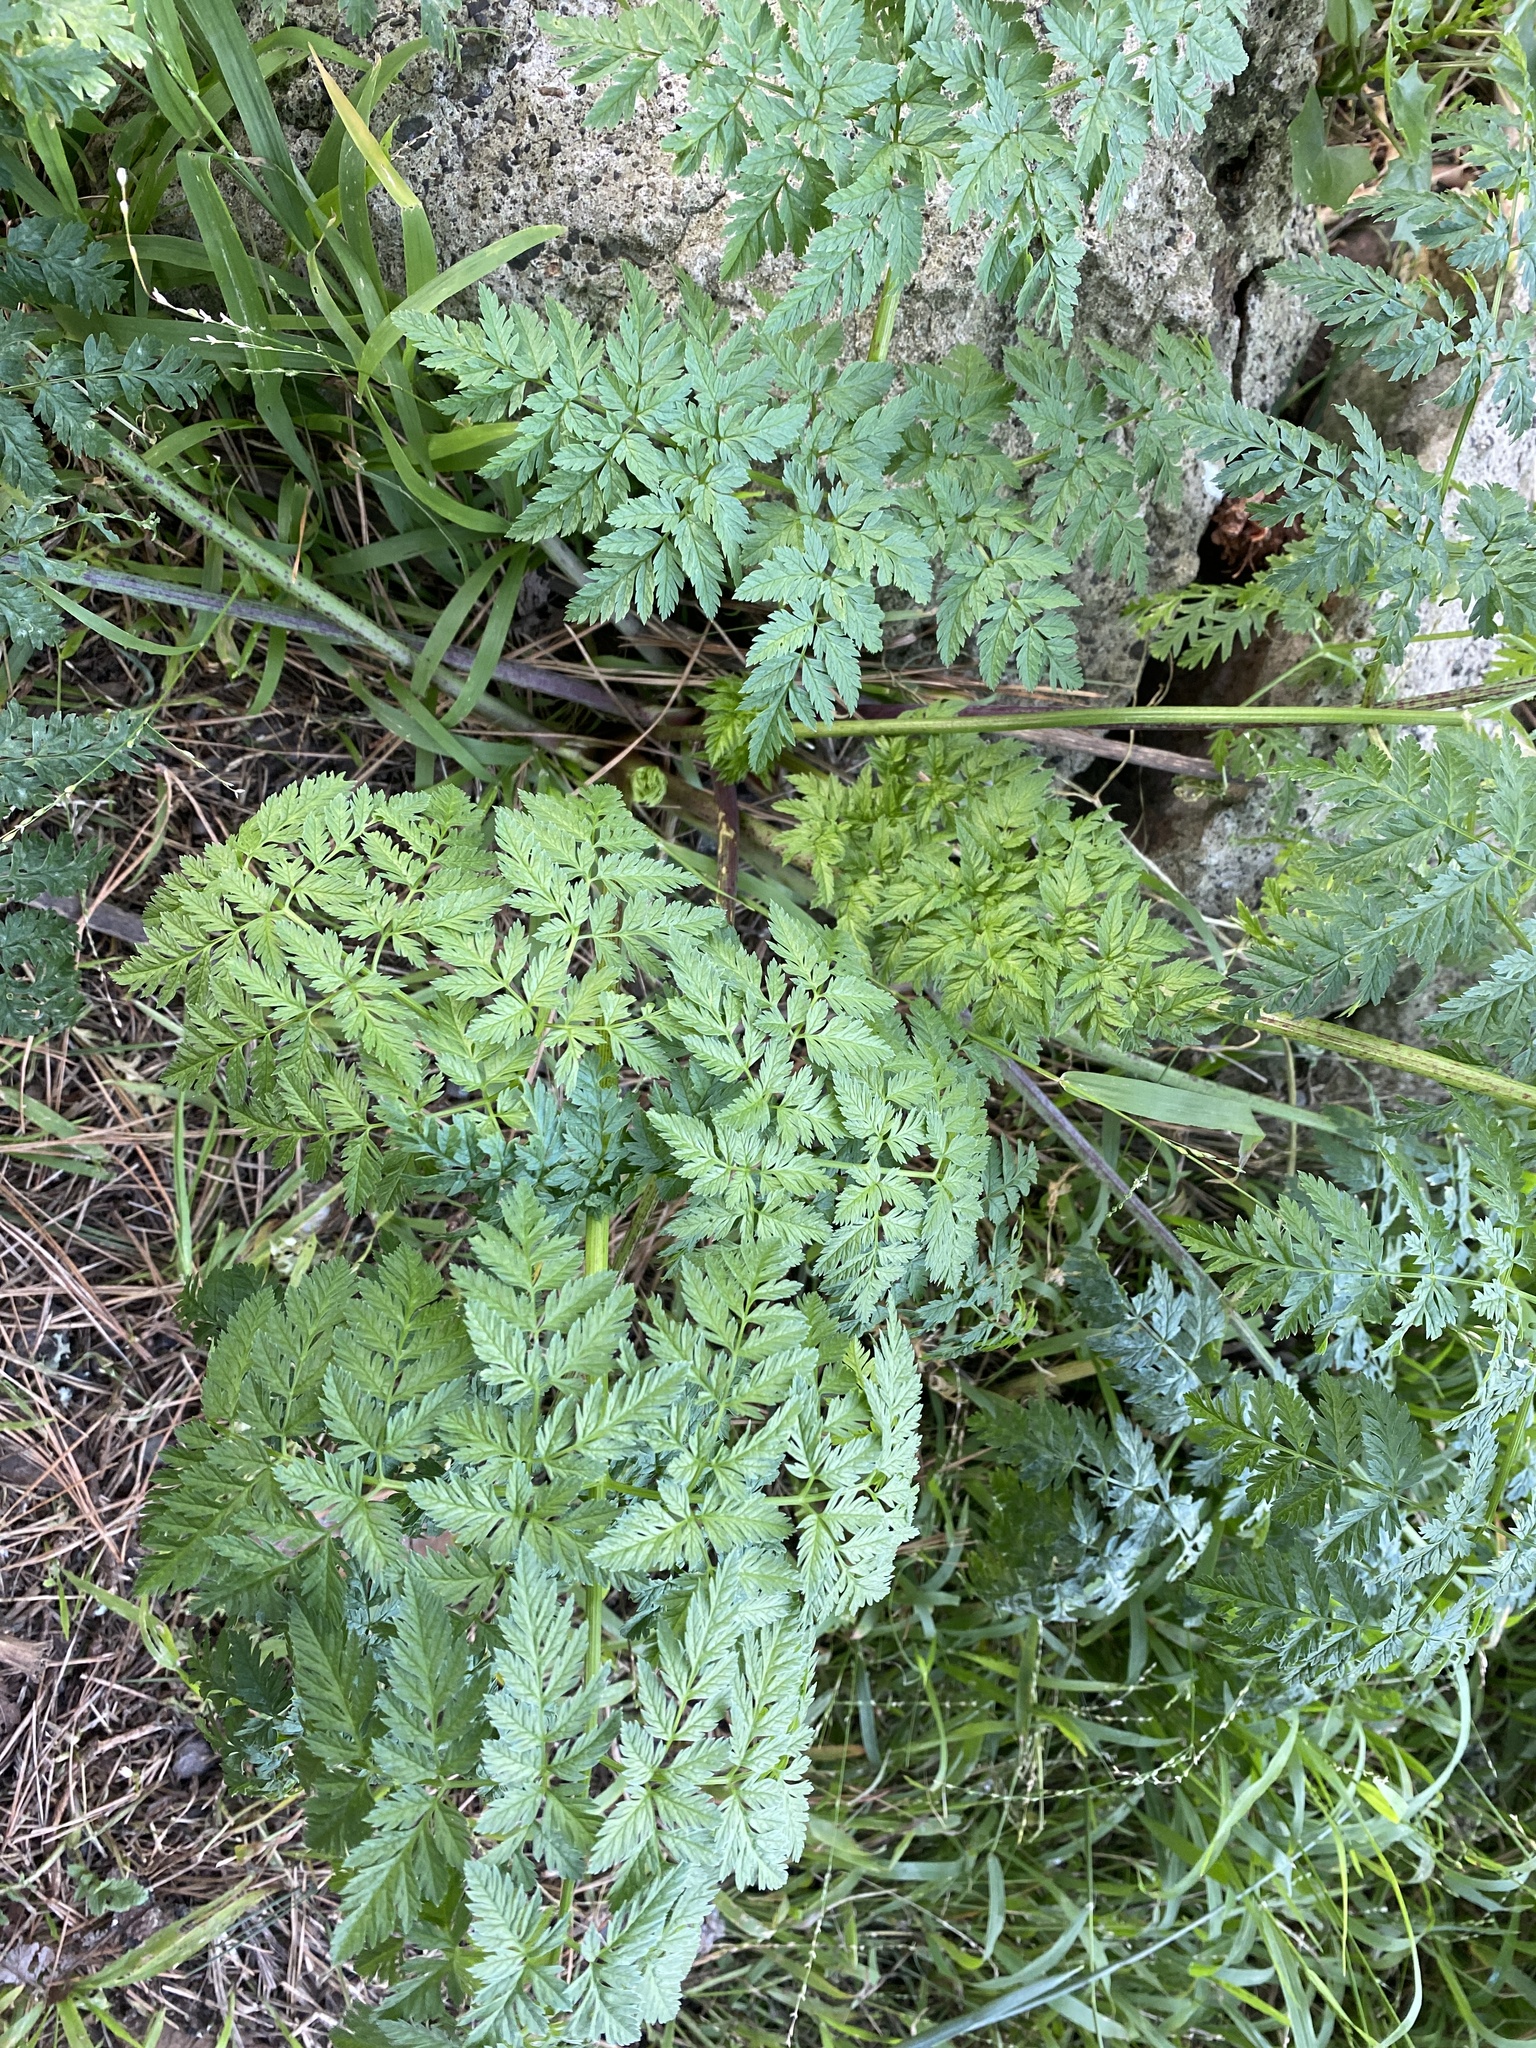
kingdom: Plantae
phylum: Tracheophyta
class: Magnoliopsida
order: Apiales
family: Apiaceae
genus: Conium
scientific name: Conium maculatum
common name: Hemlock
